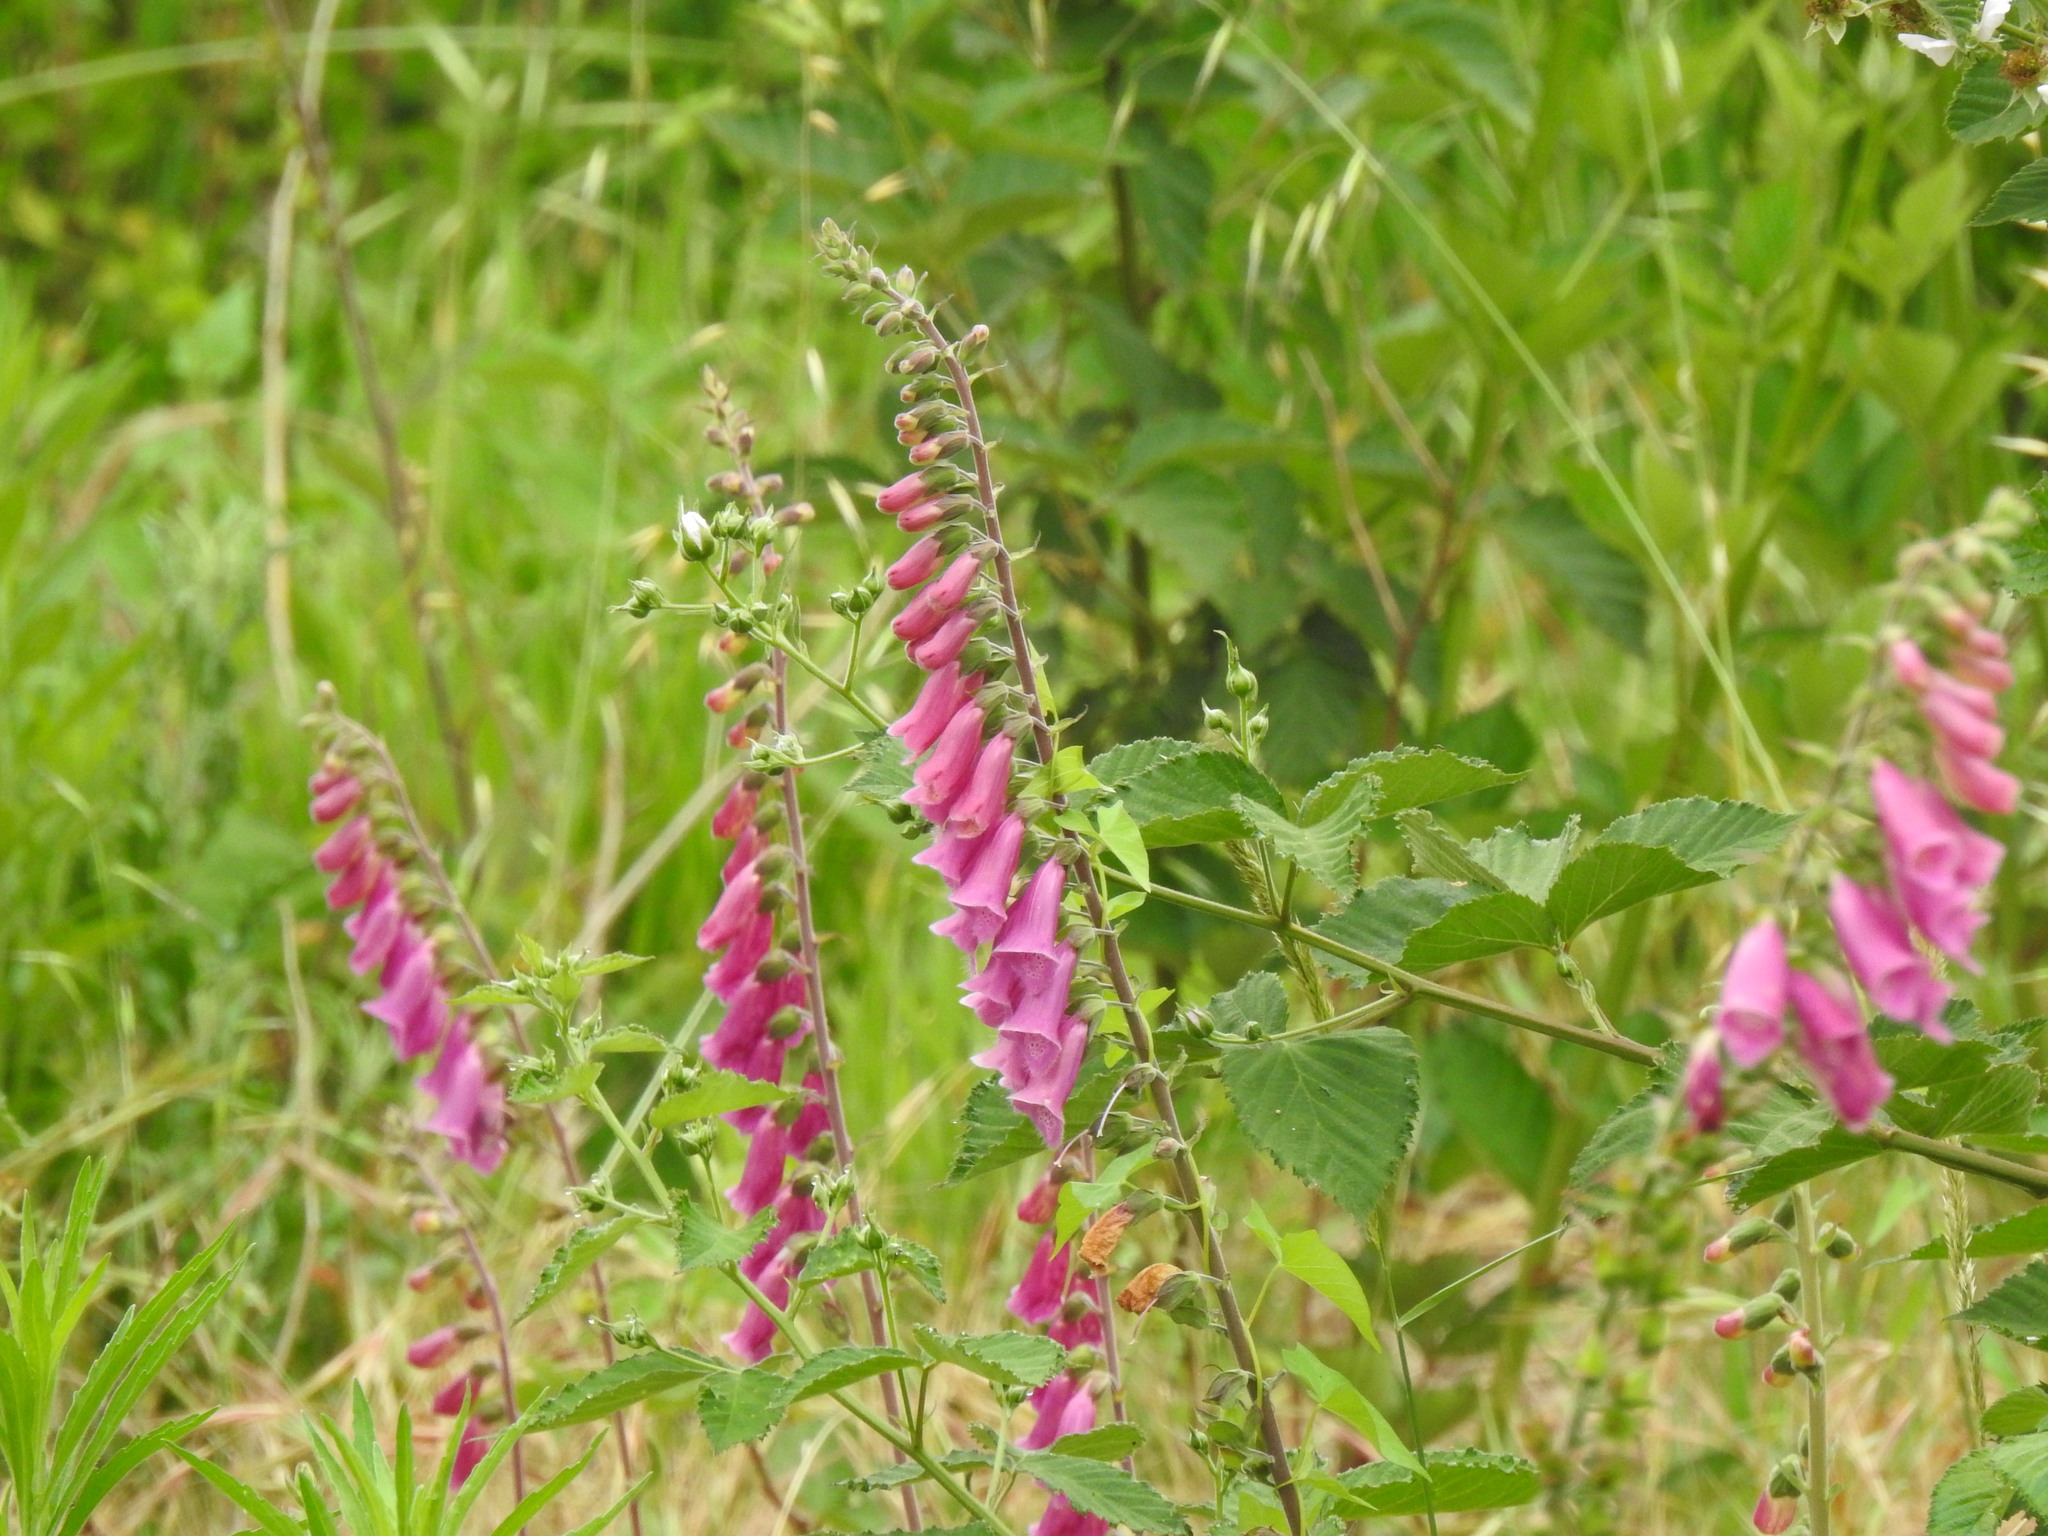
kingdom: Plantae
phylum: Tracheophyta
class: Magnoliopsida
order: Lamiales
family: Plantaginaceae
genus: Digitalis
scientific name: Digitalis purpurea
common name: Foxglove
